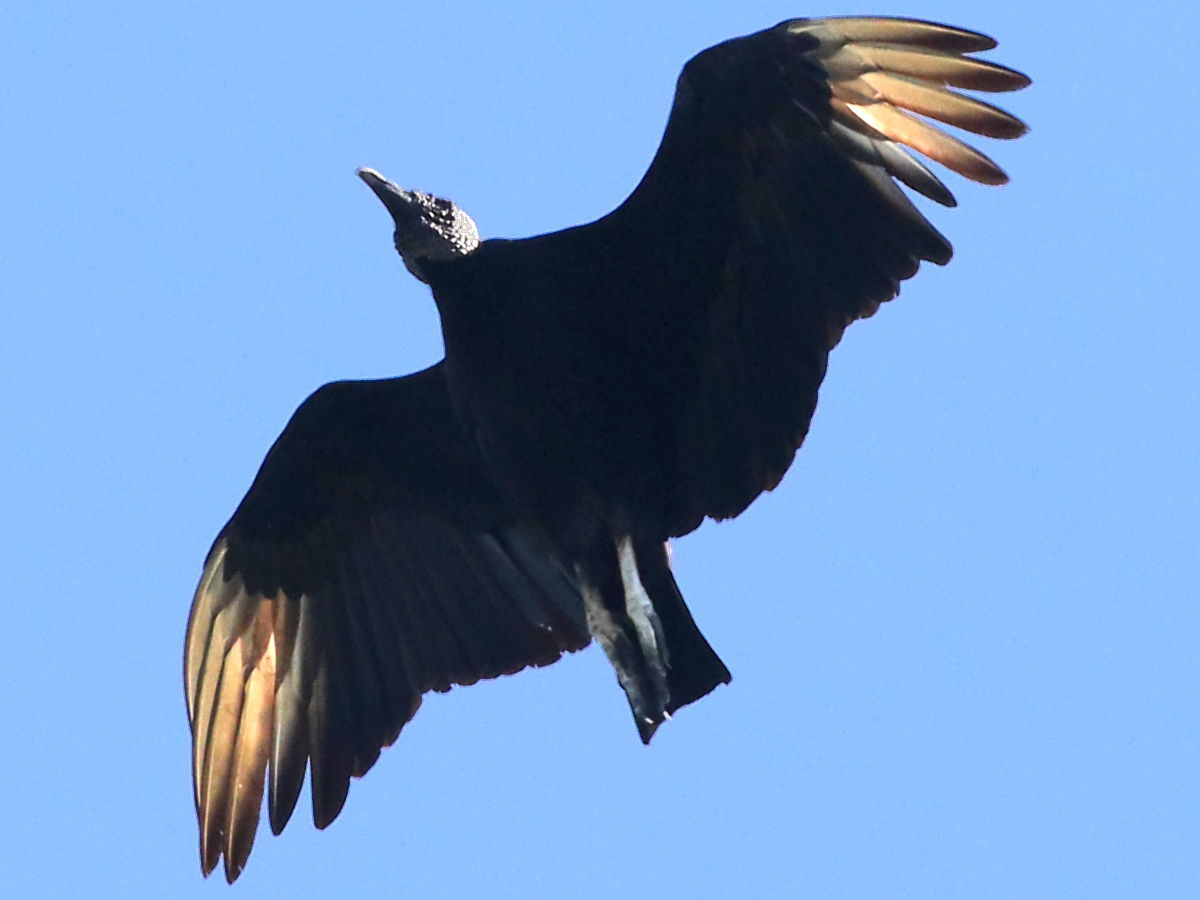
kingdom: Animalia
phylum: Chordata
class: Aves
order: Accipitriformes
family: Cathartidae
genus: Coragyps
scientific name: Coragyps atratus
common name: Black vulture
